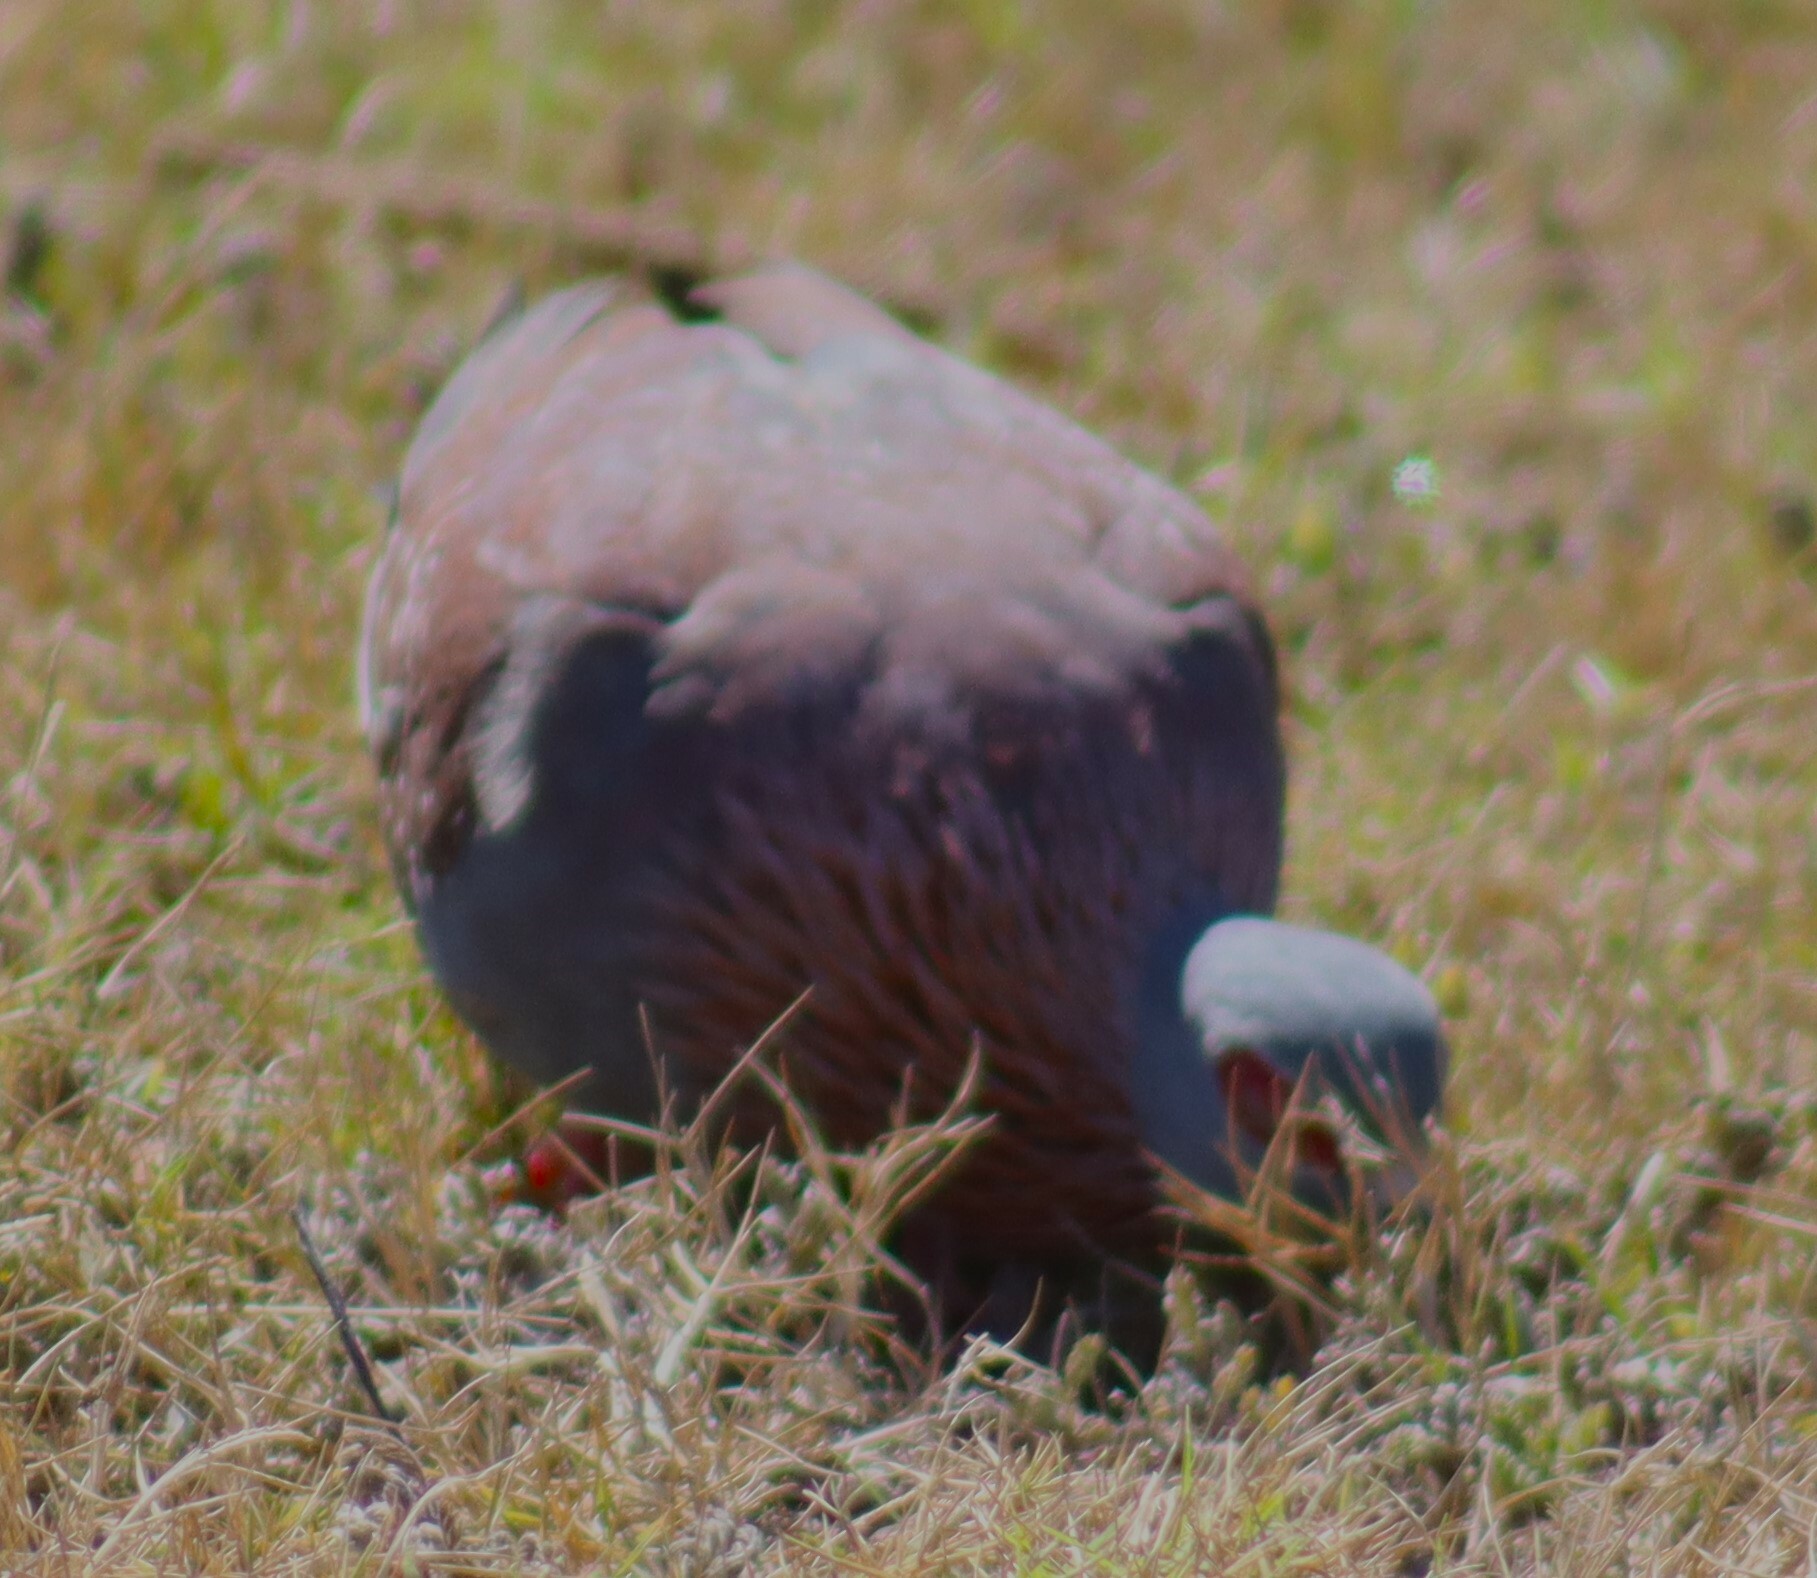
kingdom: Animalia
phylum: Chordata
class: Aves
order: Columbiformes
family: Columbidae
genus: Columba
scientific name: Columba guinea
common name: Speckled pigeon
